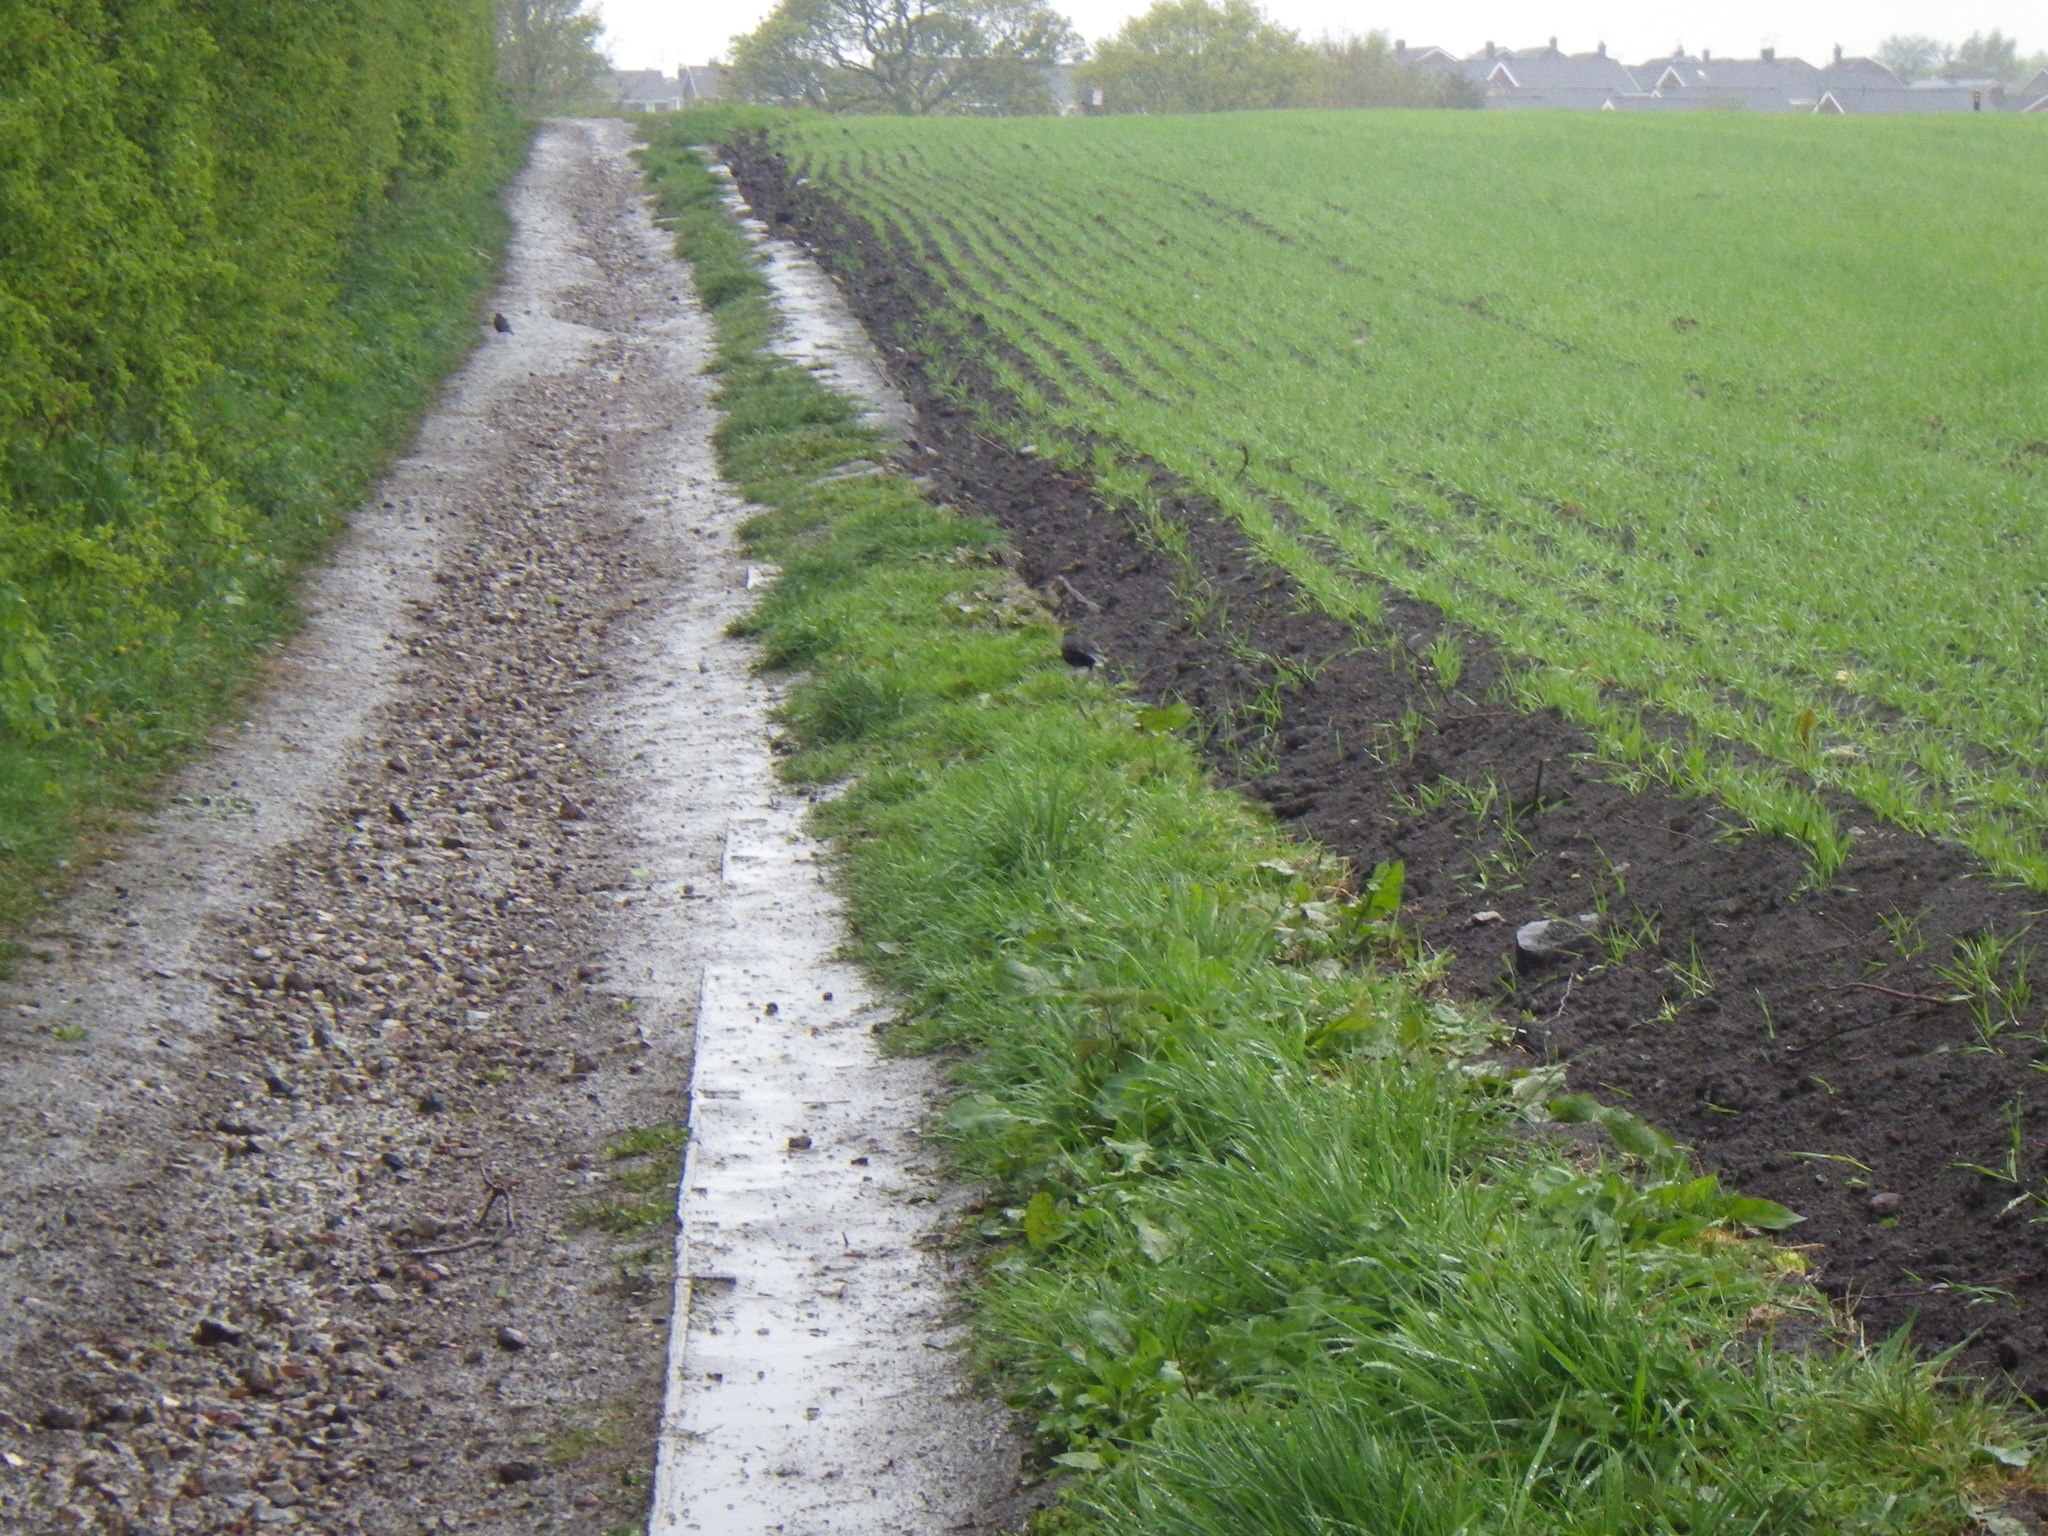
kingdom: Animalia
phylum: Chordata
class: Aves
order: Passeriformes
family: Turdidae
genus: Turdus
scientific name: Turdus merula
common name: Common blackbird
